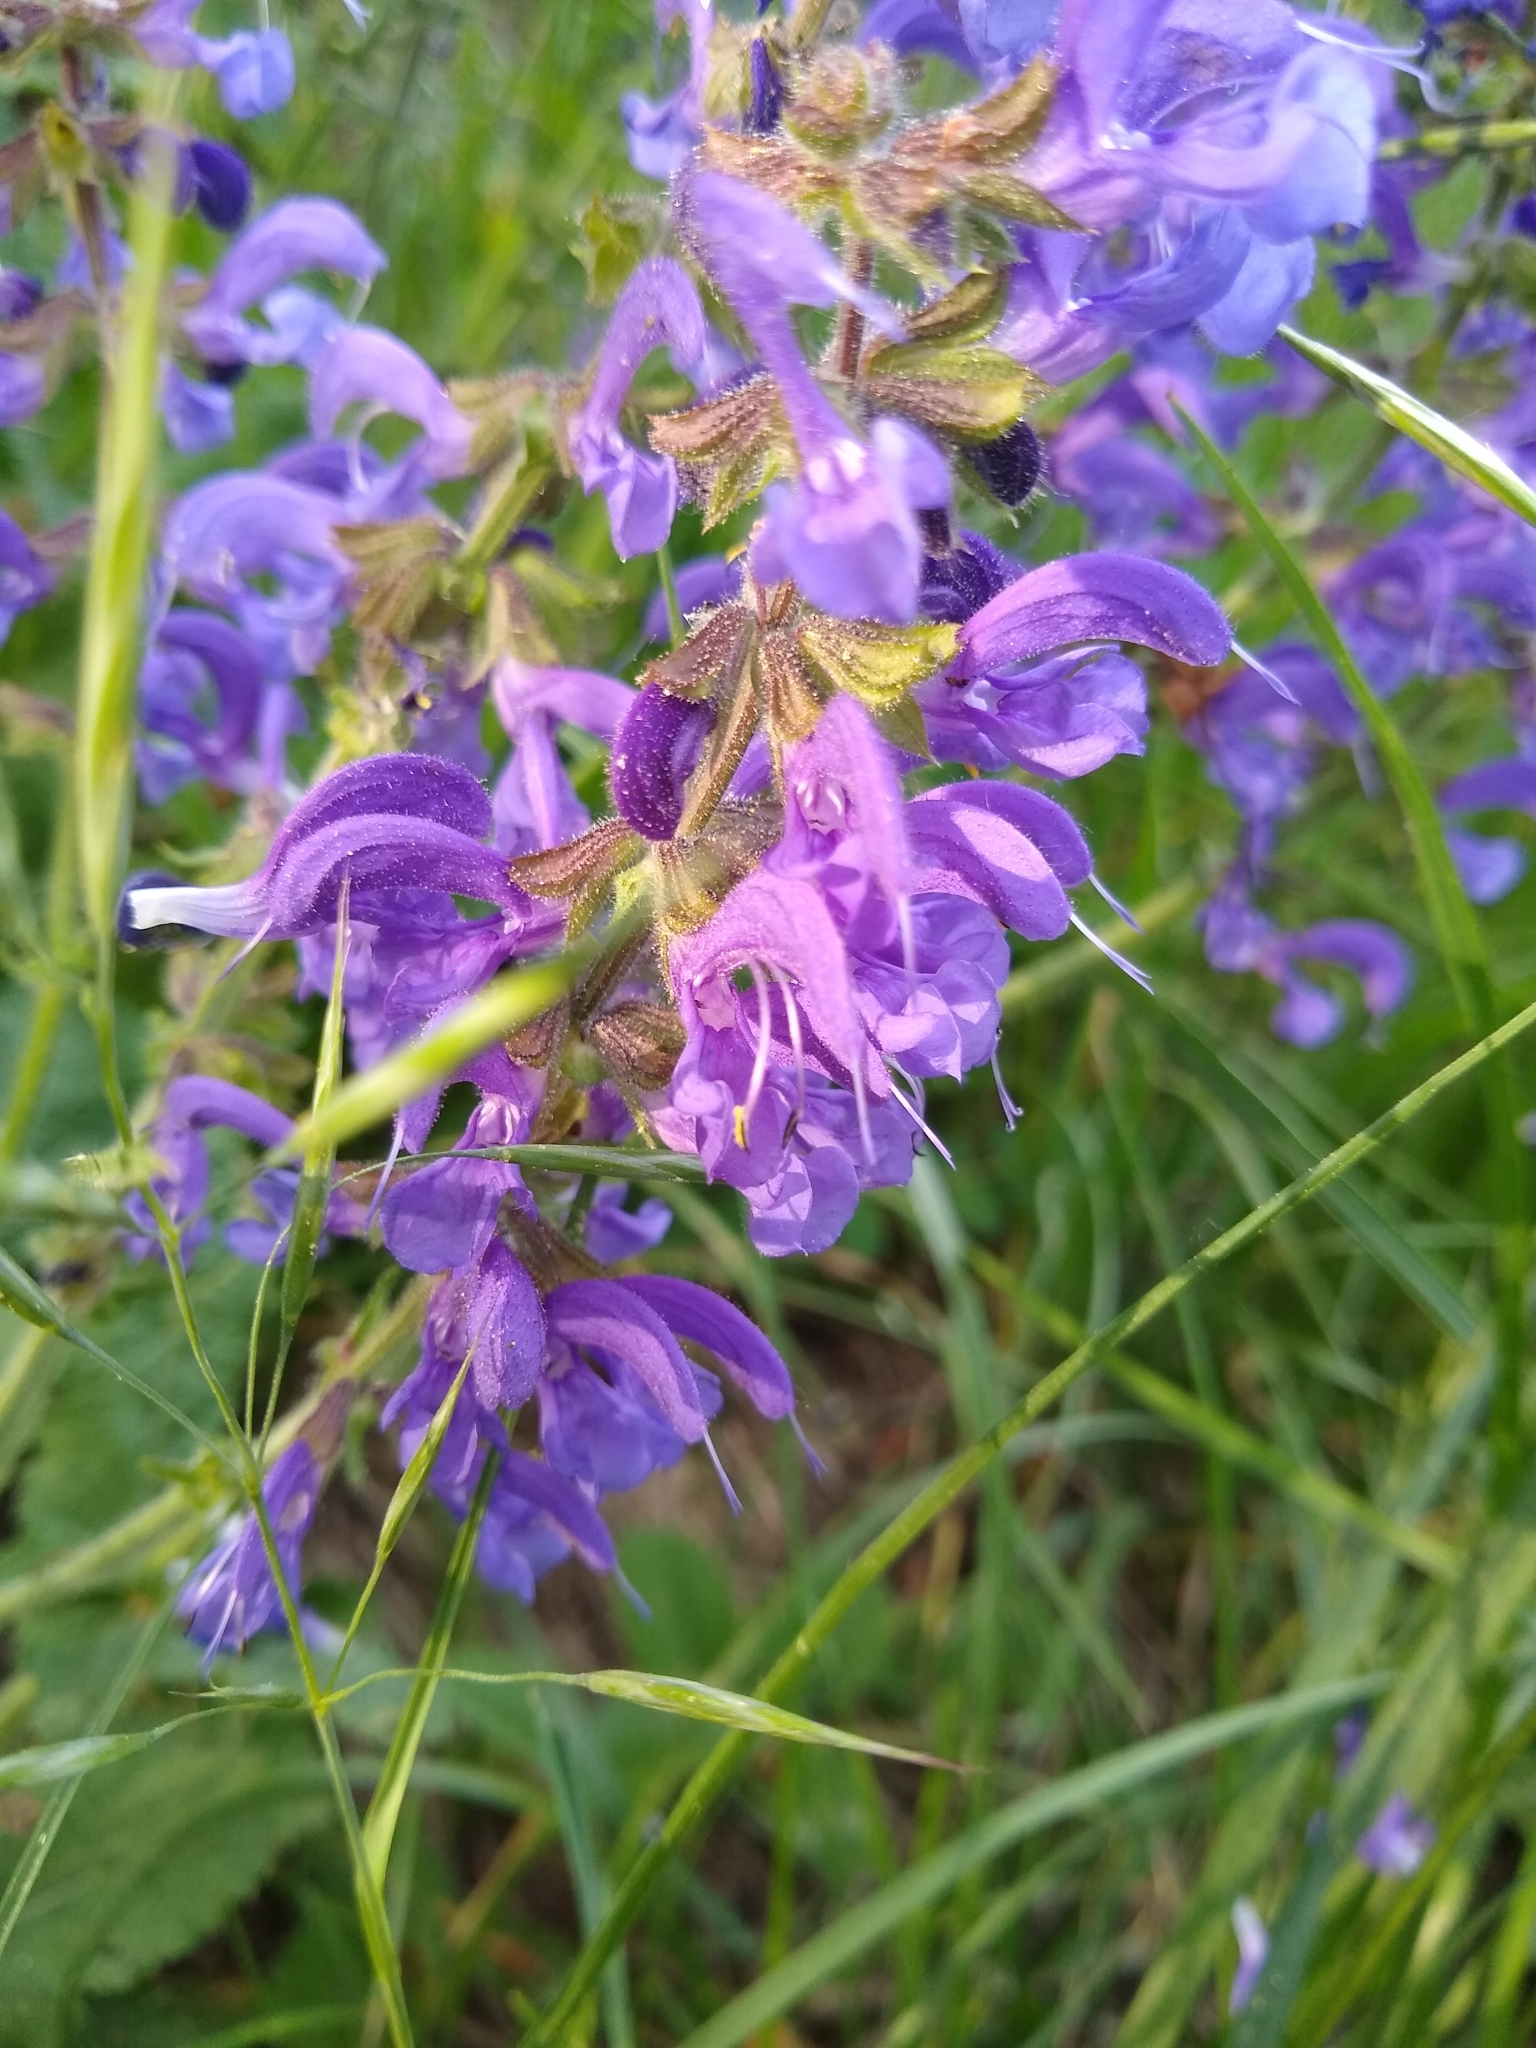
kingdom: Plantae
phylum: Tracheophyta
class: Magnoliopsida
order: Lamiales
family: Lamiaceae
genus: Salvia
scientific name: Salvia pratensis
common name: Meadow sage
